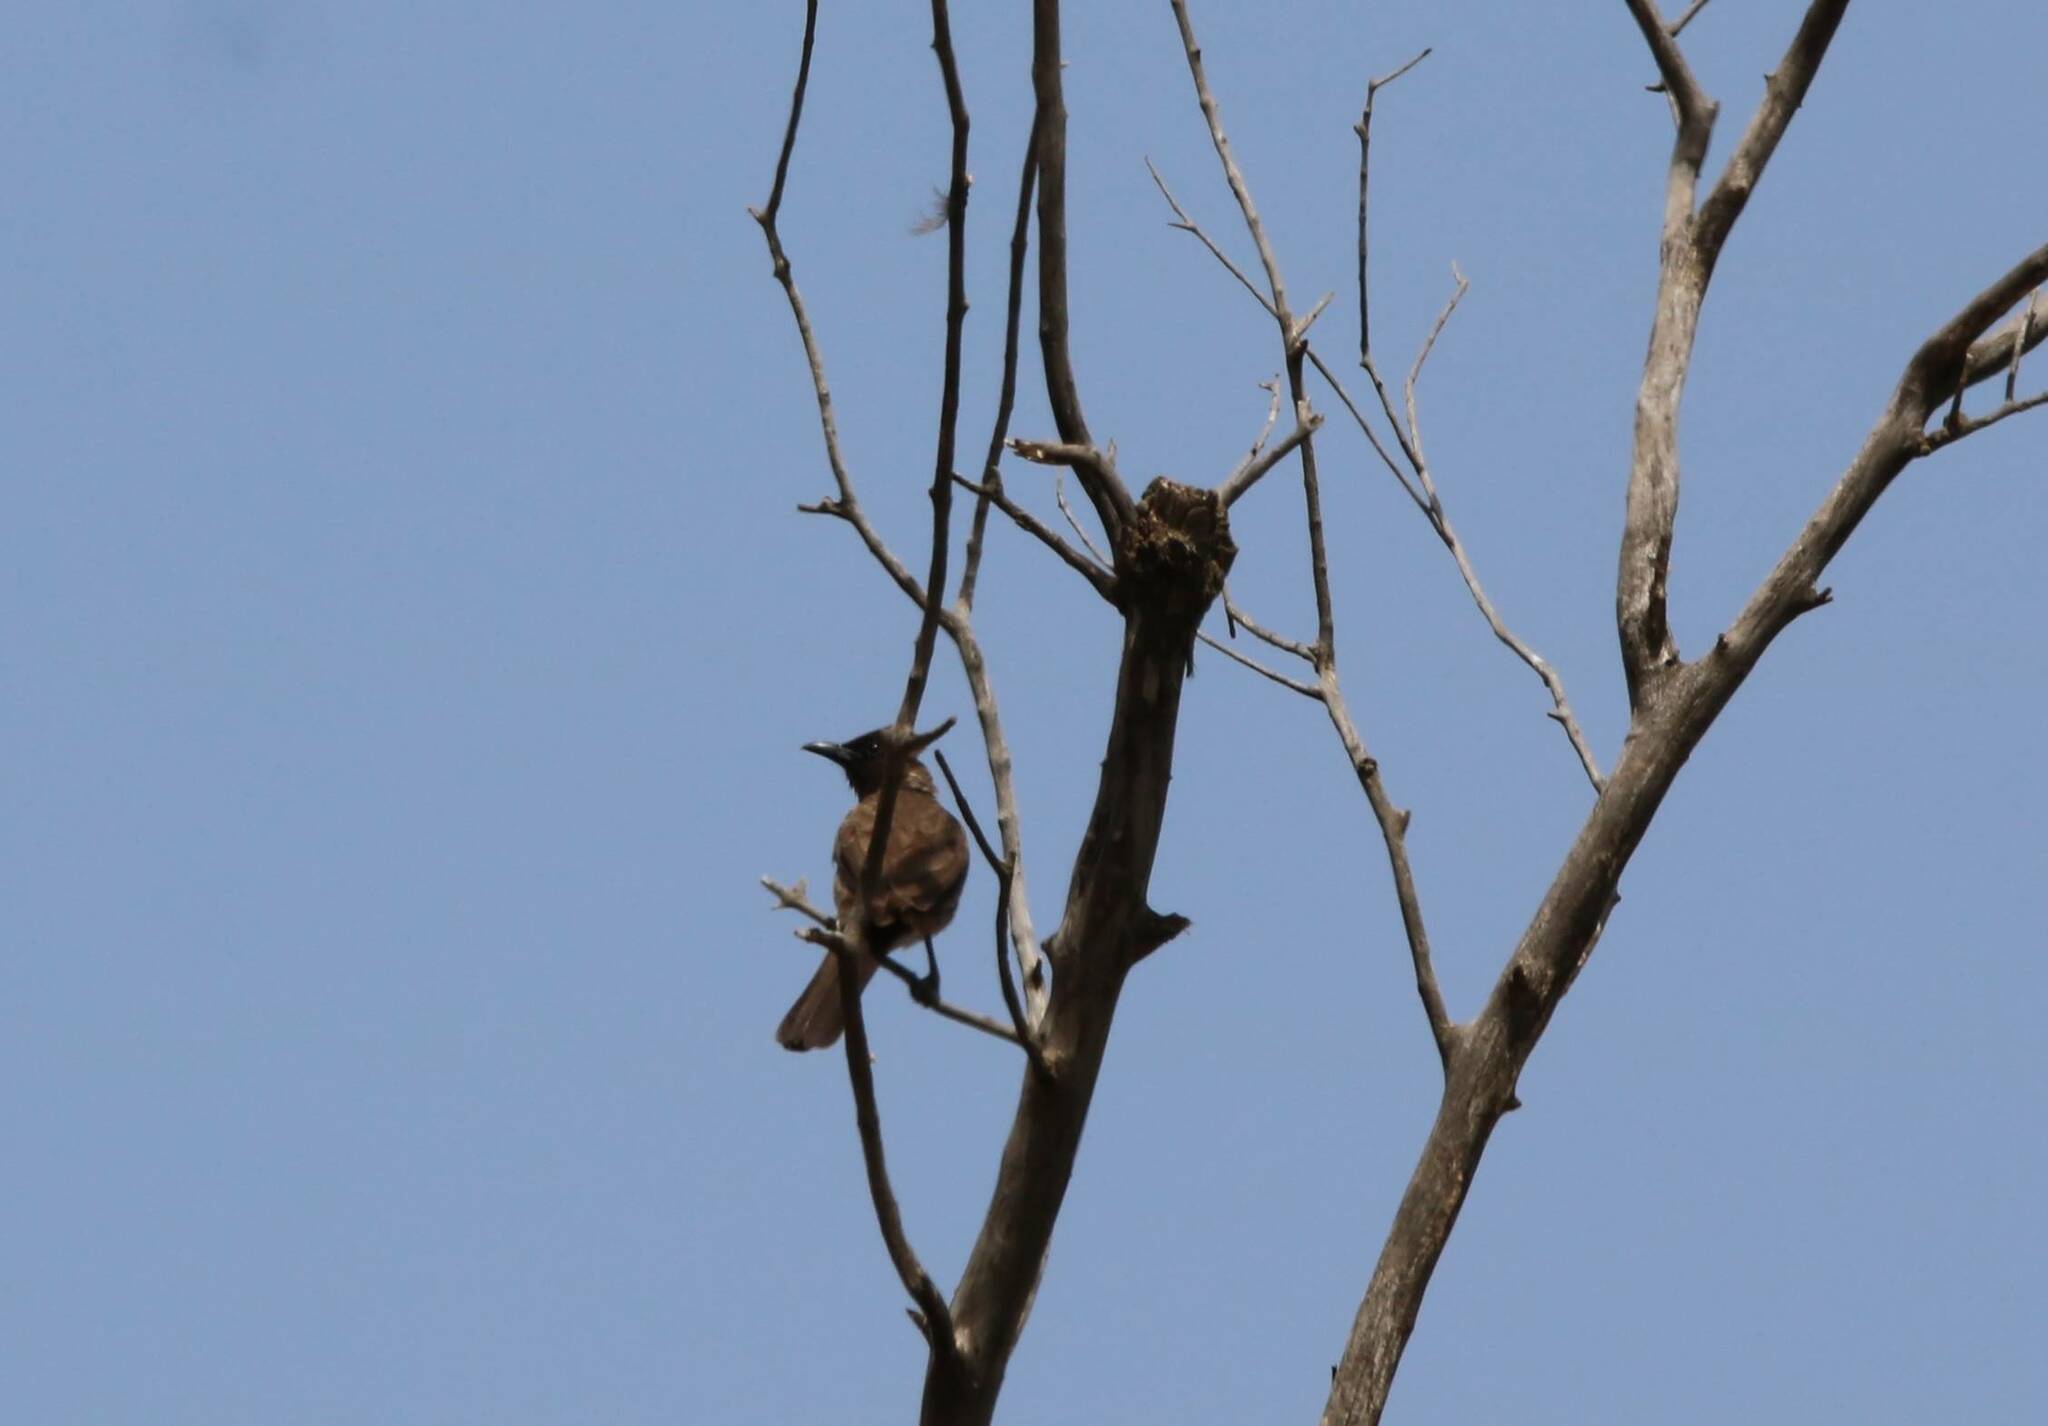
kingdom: Animalia
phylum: Chordata
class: Aves
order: Passeriformes
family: Pycnonotidae
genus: Pycnonotus
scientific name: Pycnonotus barbatus
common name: Common bulbul
